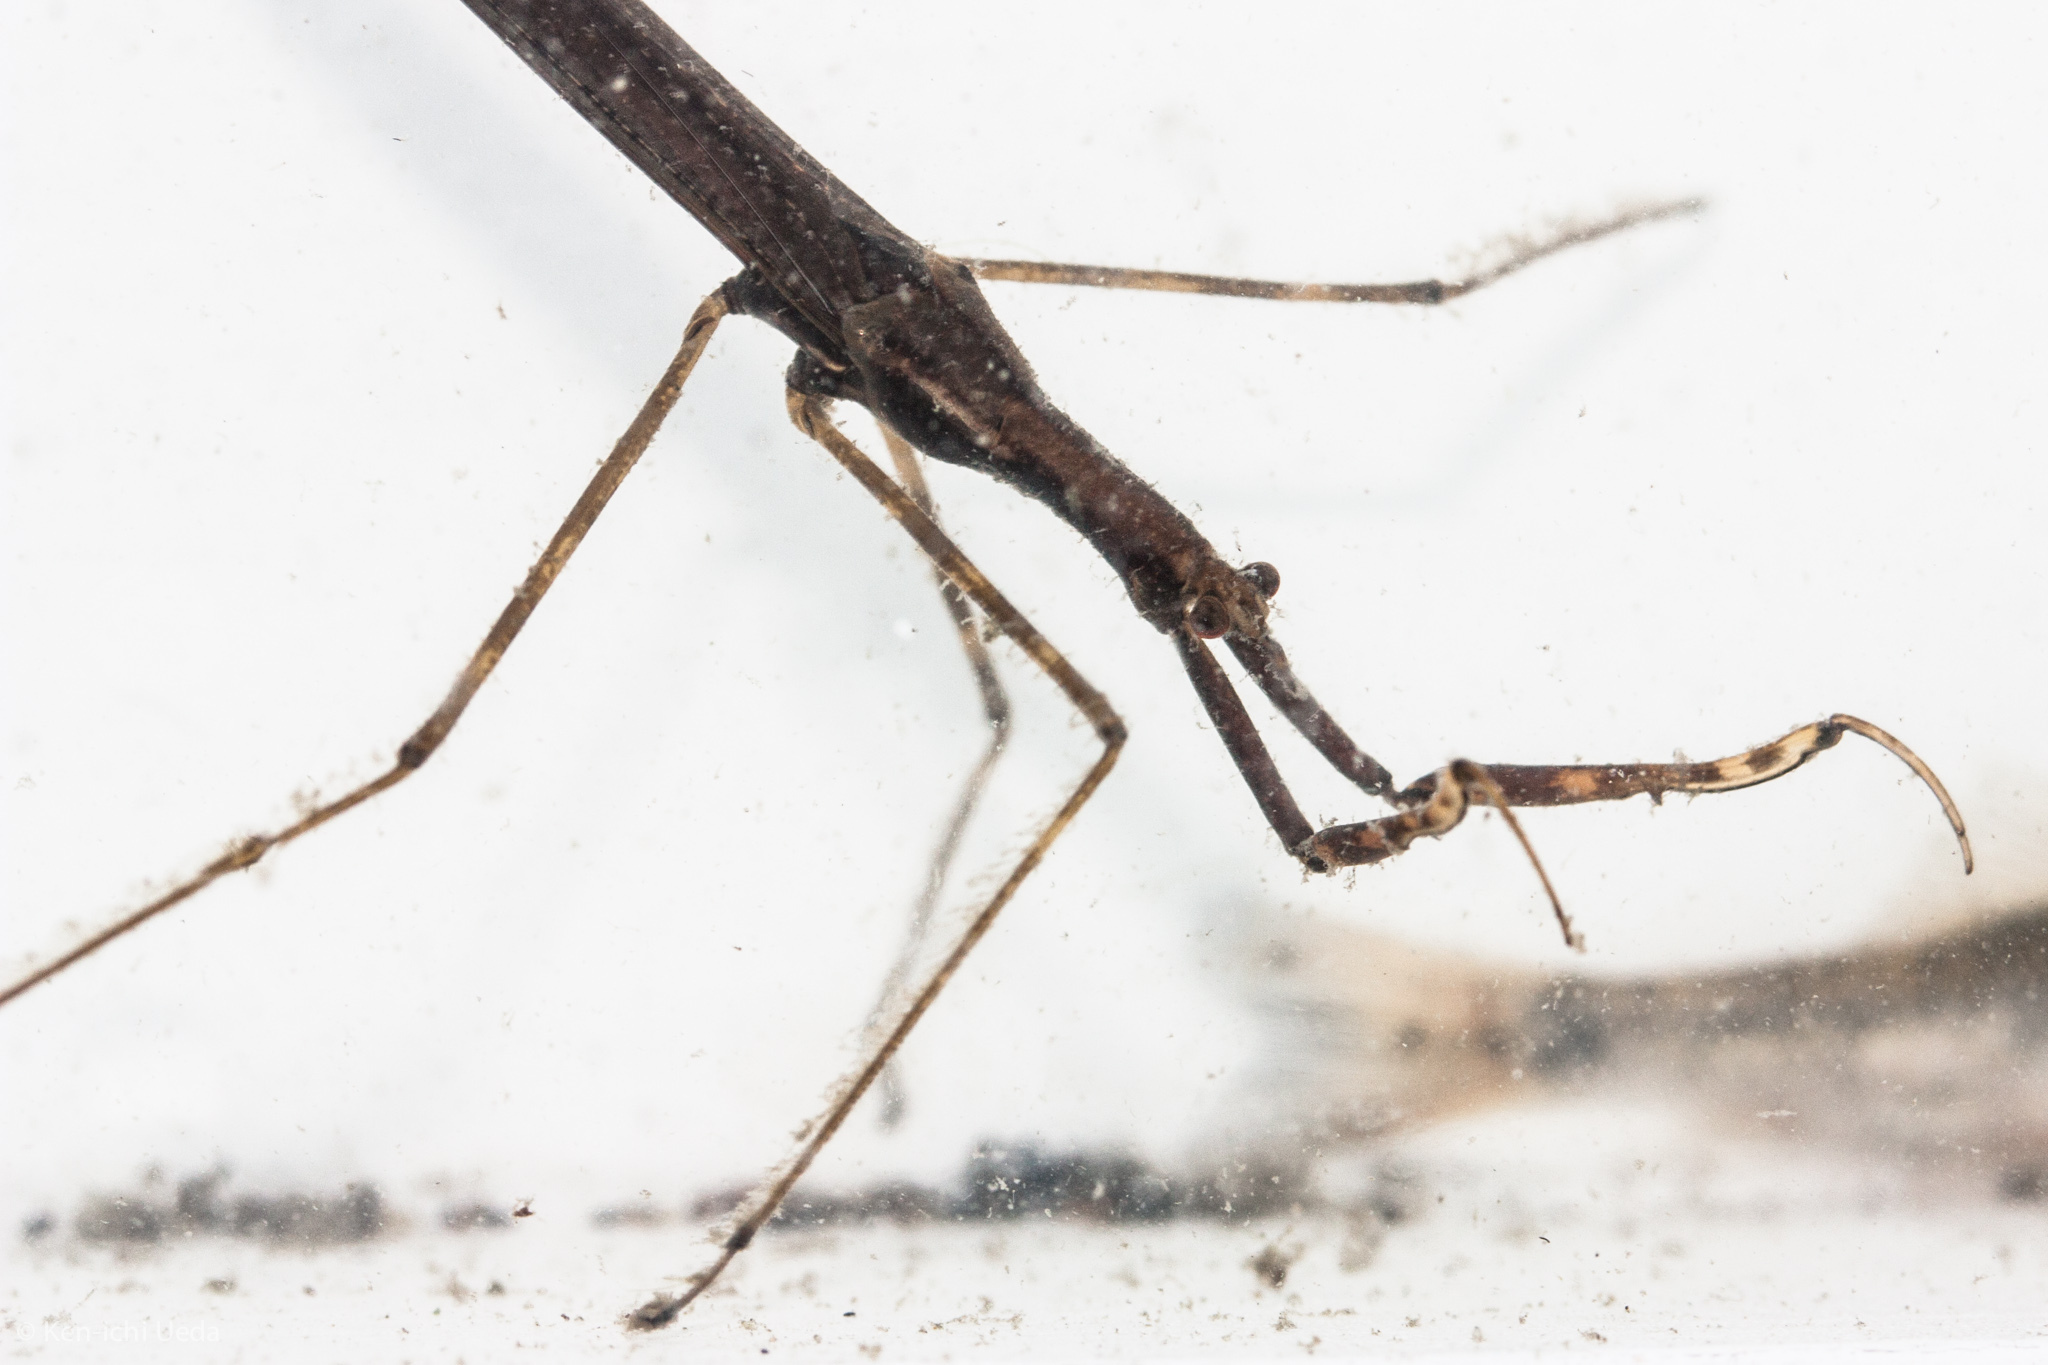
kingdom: Animalia
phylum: Arthropoda
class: Insecta
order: Hemiptera
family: Nepidae
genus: Ranatra
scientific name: Ranatra brevicollis
